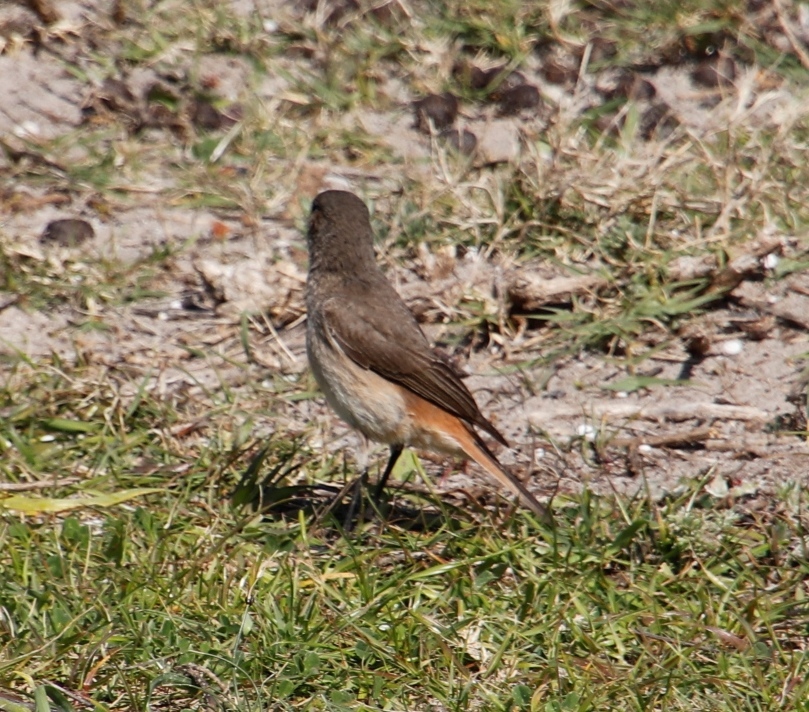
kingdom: Animalia
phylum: Chordata
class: Aves
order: Passeriformes
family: Muscicapidae
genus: Oenanthe
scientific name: Oenanthe familiaris
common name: Familiar chat
